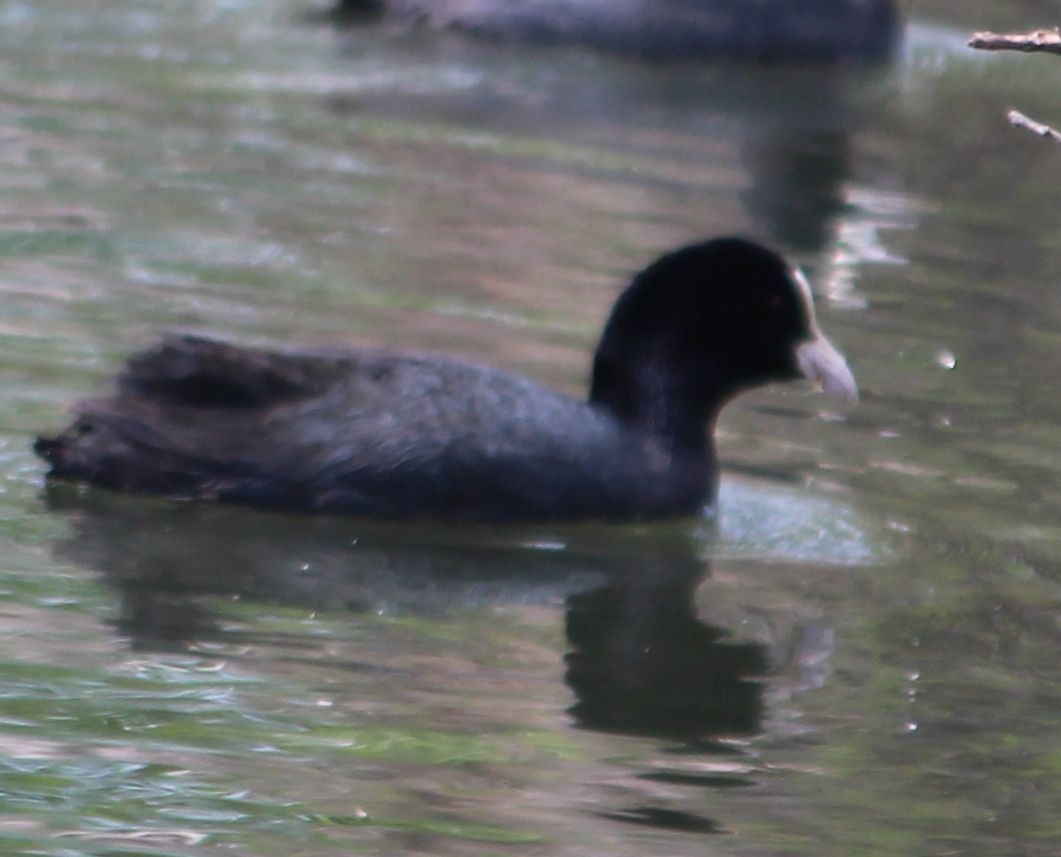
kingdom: Animalia
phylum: Chordata
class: Aves
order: Gruiformes
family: Rallidae
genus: Fulica
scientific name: Fulica atra
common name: Eurasian coot
